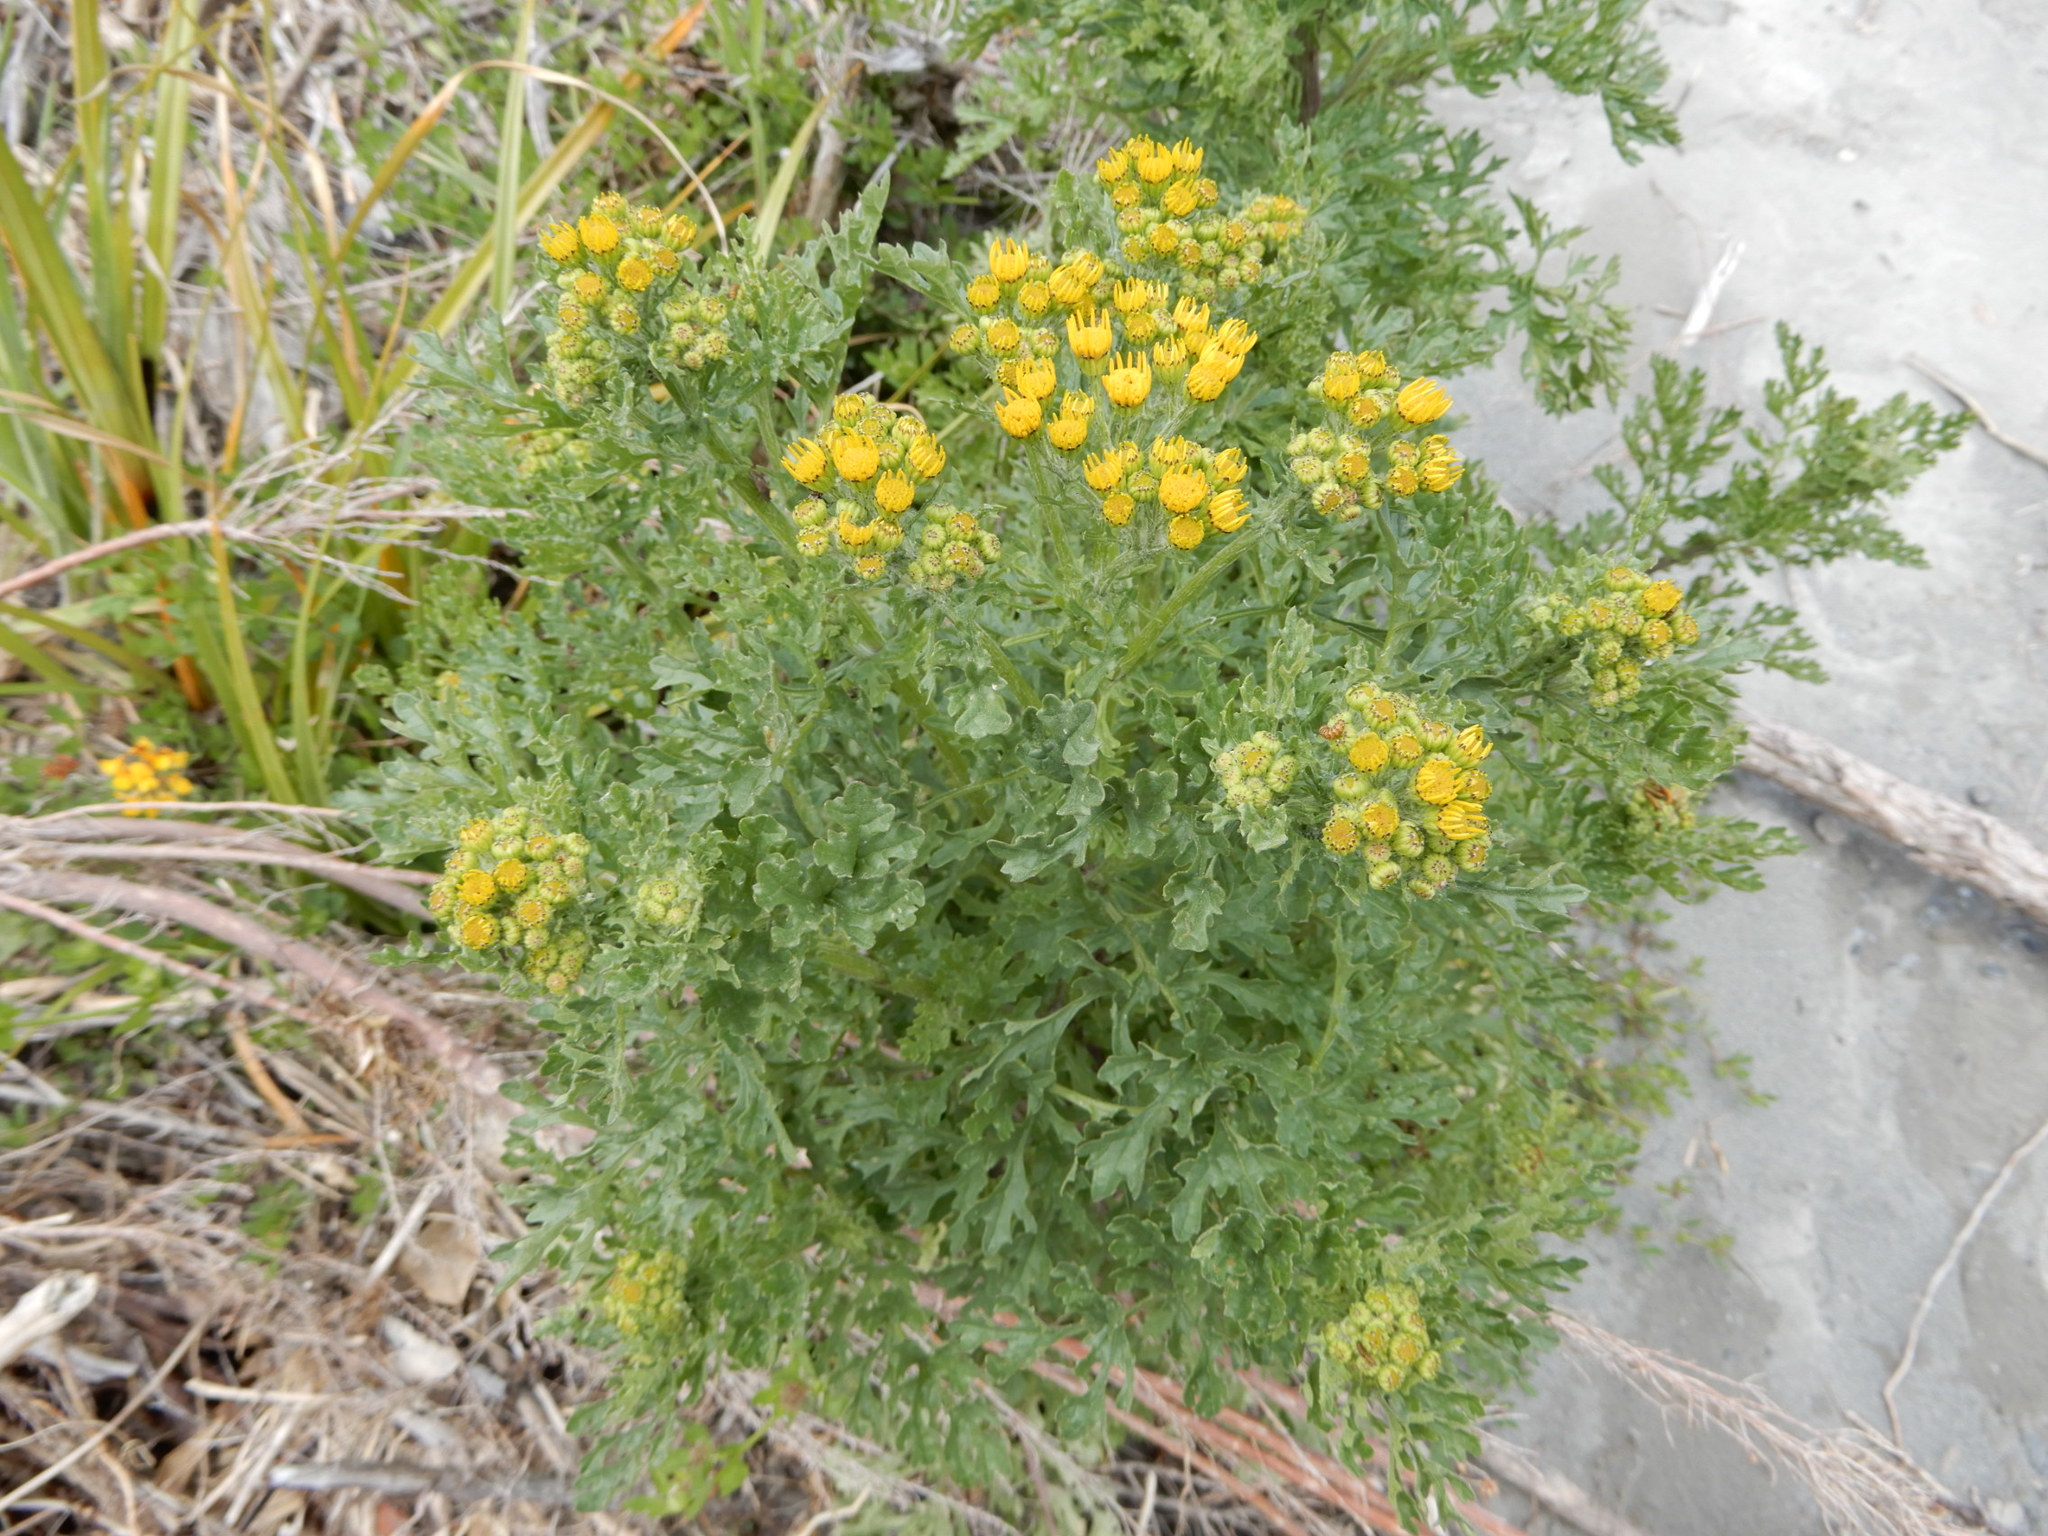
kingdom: Plantae
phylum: Tracheophyta
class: Magnoliopsida
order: Asterales
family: Asteraceae
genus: Jacobaea
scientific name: Jacobaea vulgaris
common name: Stinking willie
